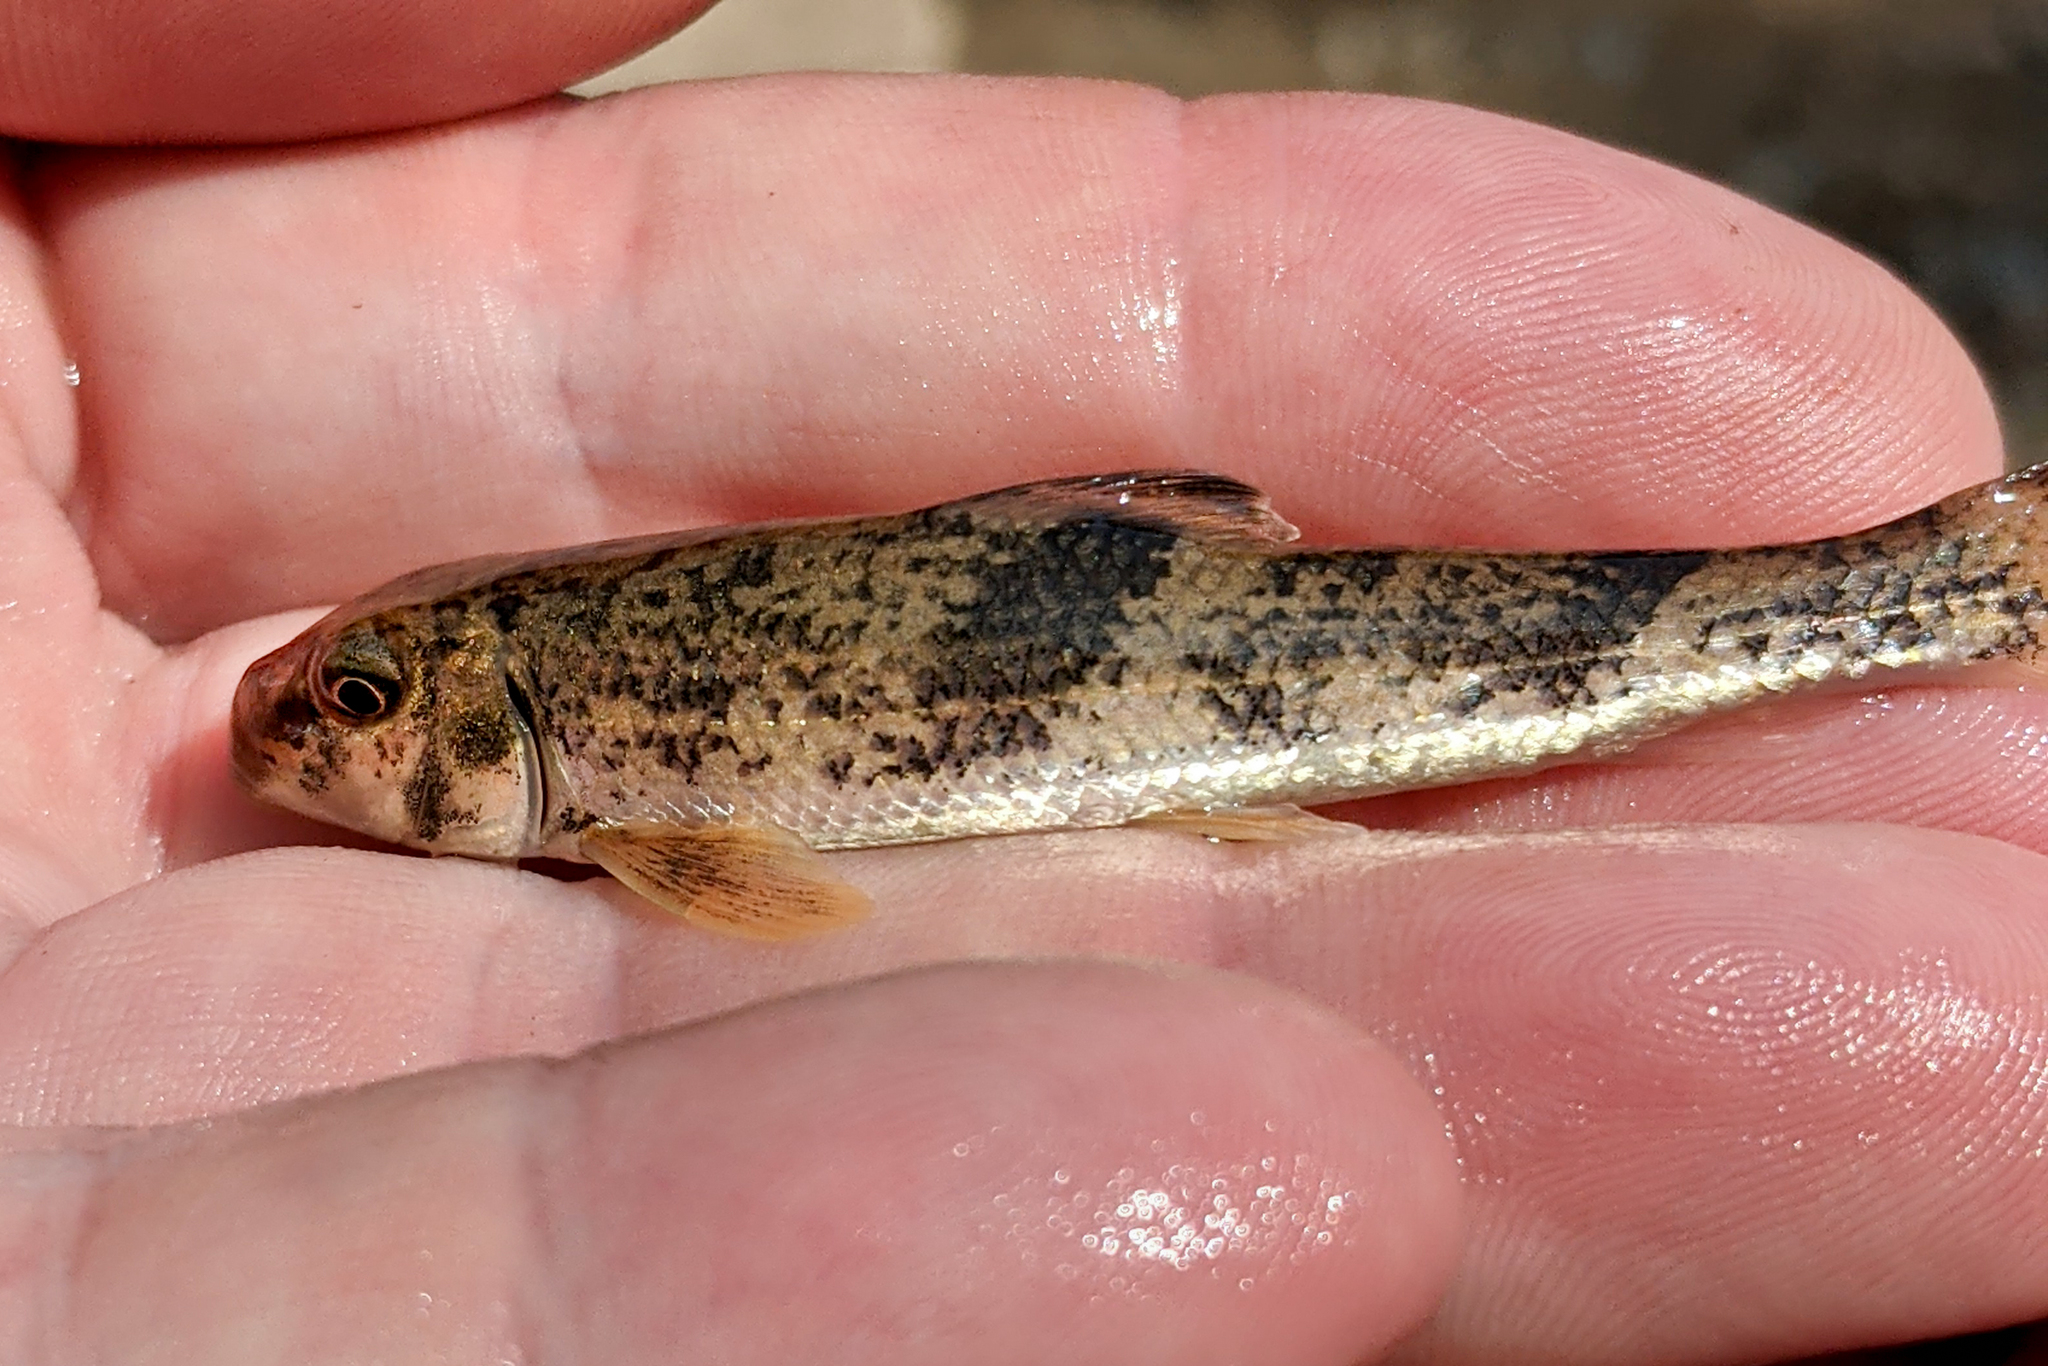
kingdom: Animalia
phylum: Chordata
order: Cypriniformes
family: Catostomidae
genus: Hypentelium
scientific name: Hypentelium nigricans
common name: Northern hog sucker
